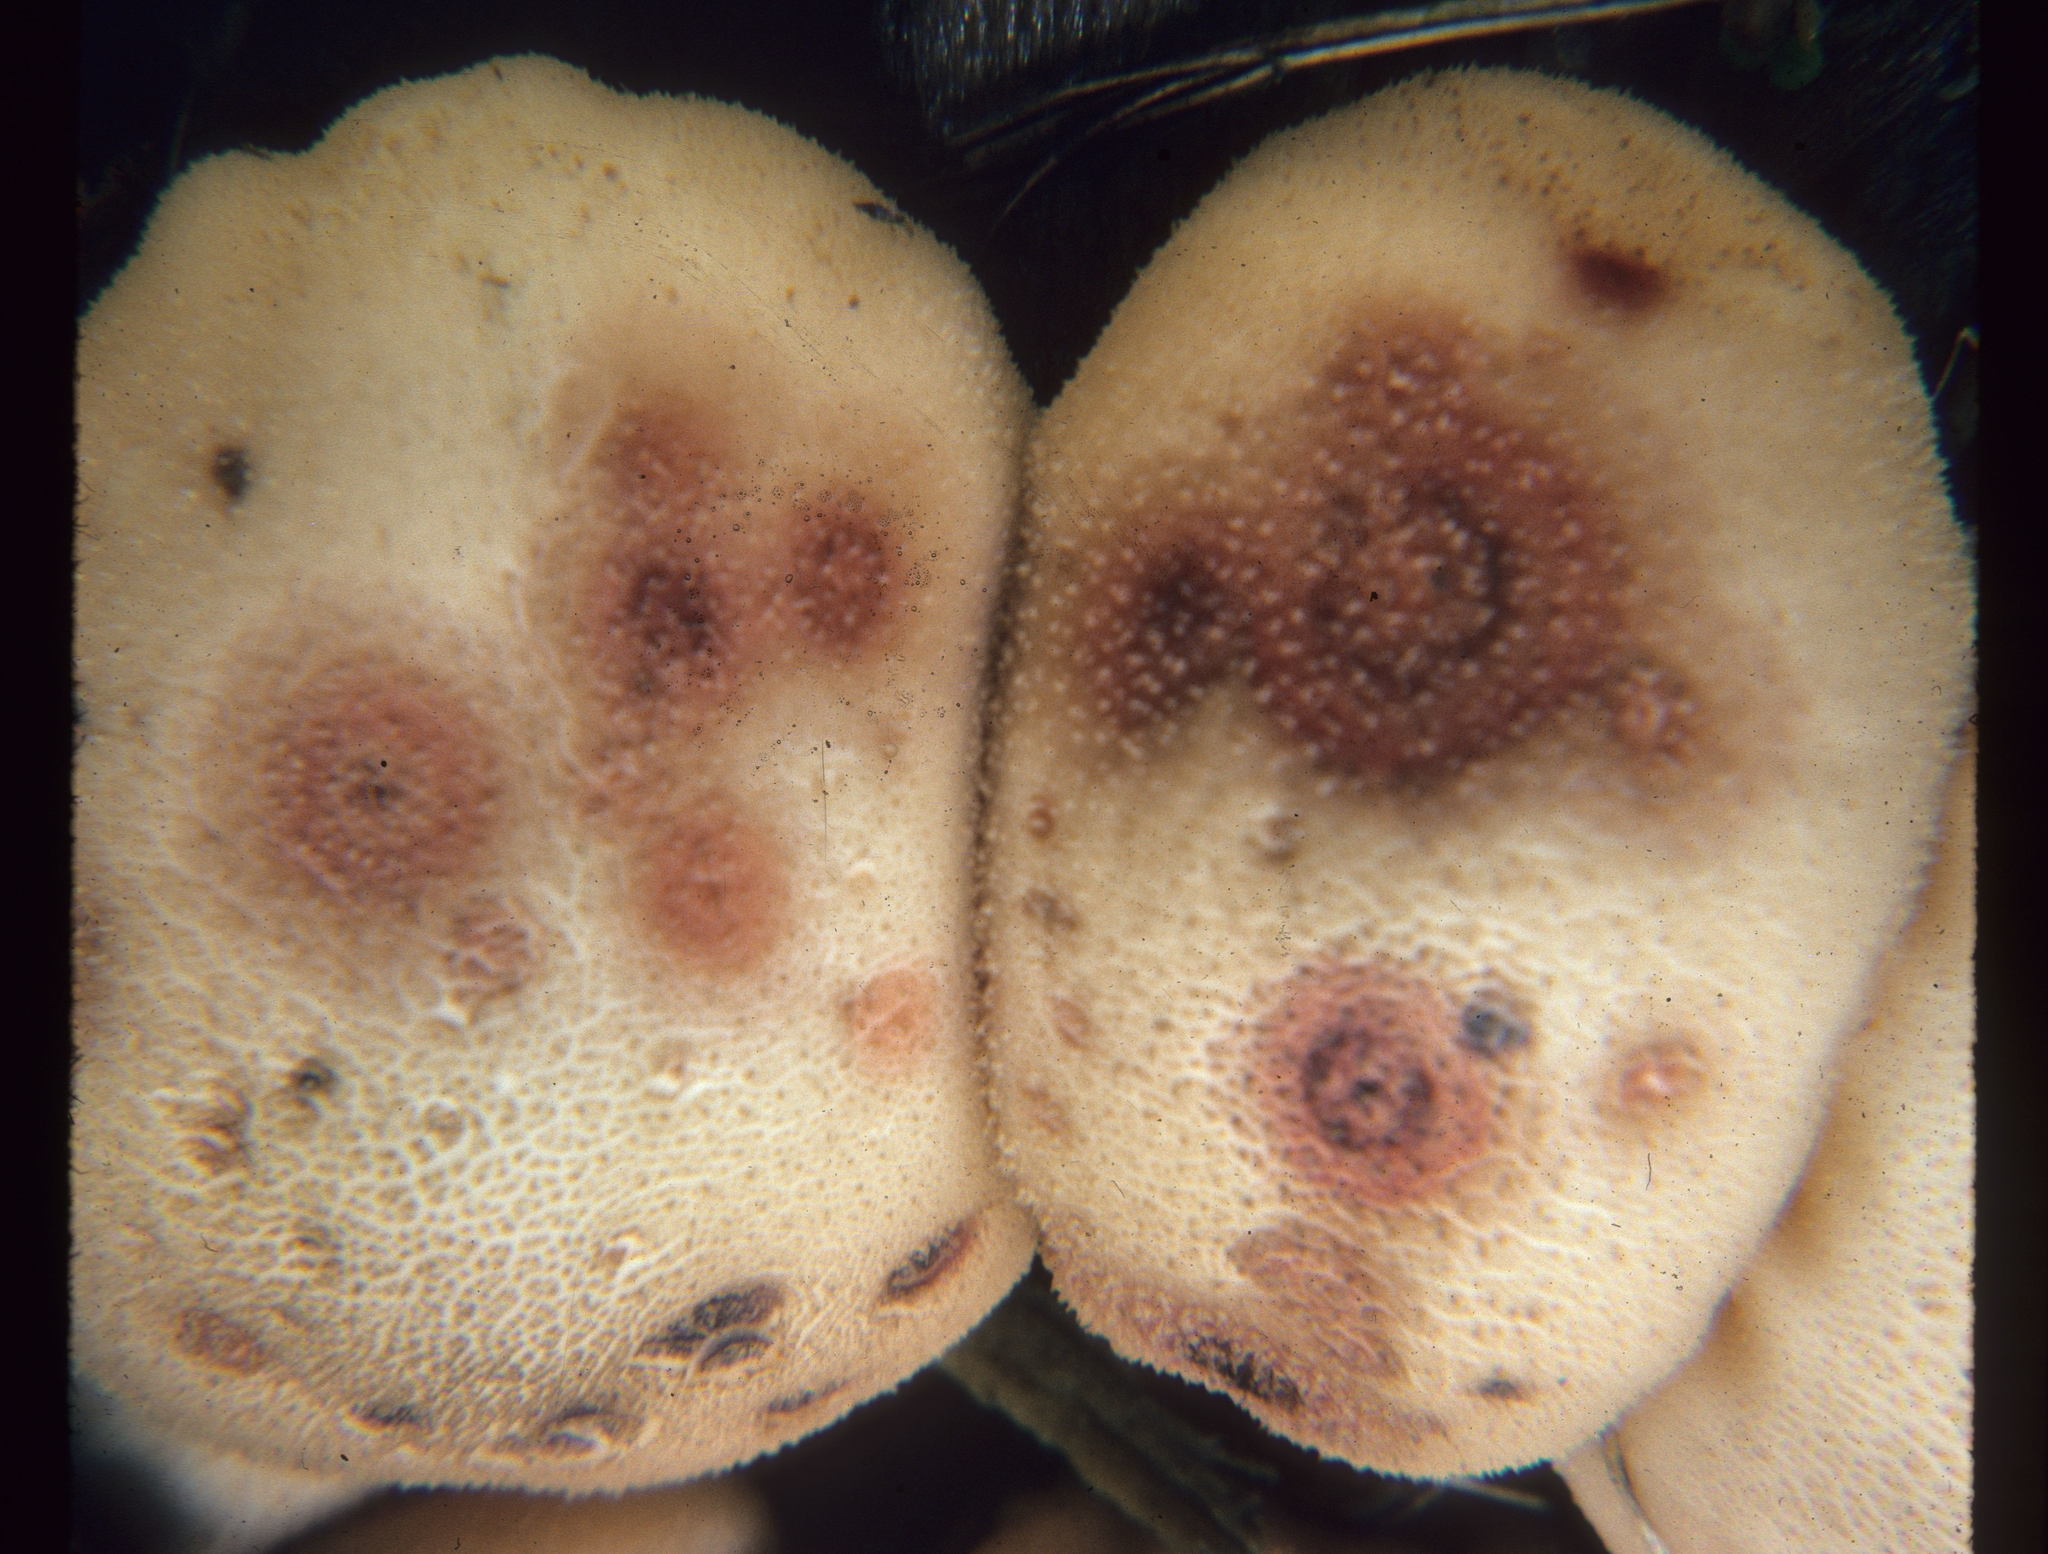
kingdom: Fungi
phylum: Ascomycota
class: Dothideomycetes
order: Pleosporales
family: Didymellaceae
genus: Epicoccum
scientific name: Epicoccum nigrum
